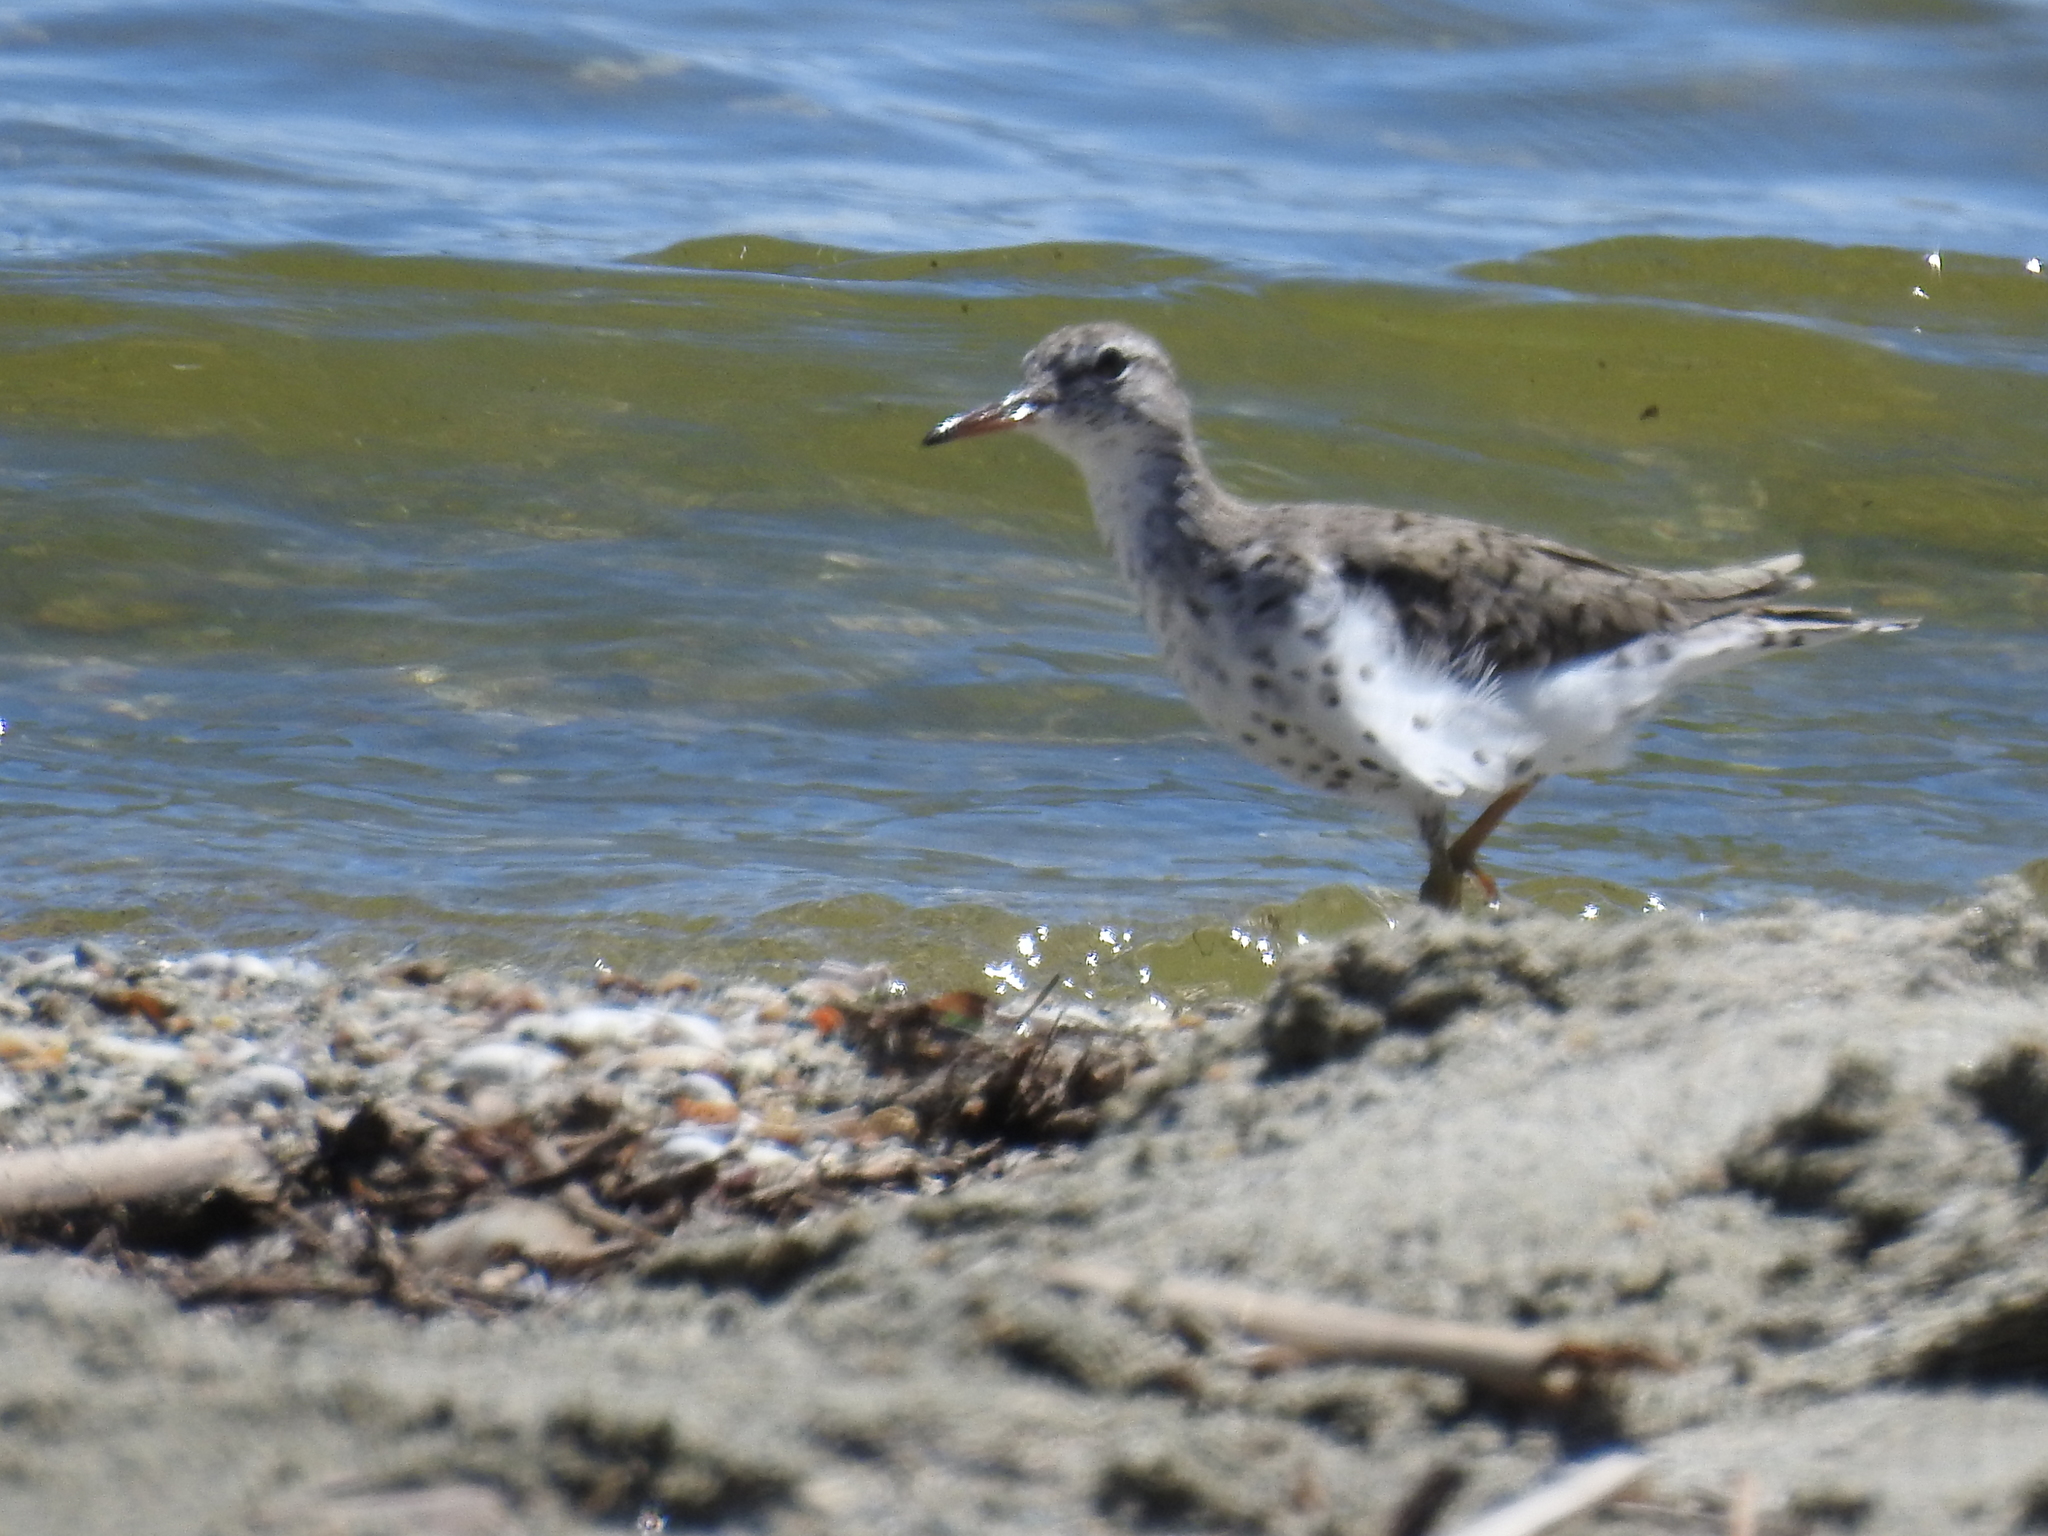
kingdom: Animalia
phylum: Chordata
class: Aves
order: Charadriiformes
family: Scolopacidae
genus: Actitis
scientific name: Actitis macularius
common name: Spotted sandpiper
